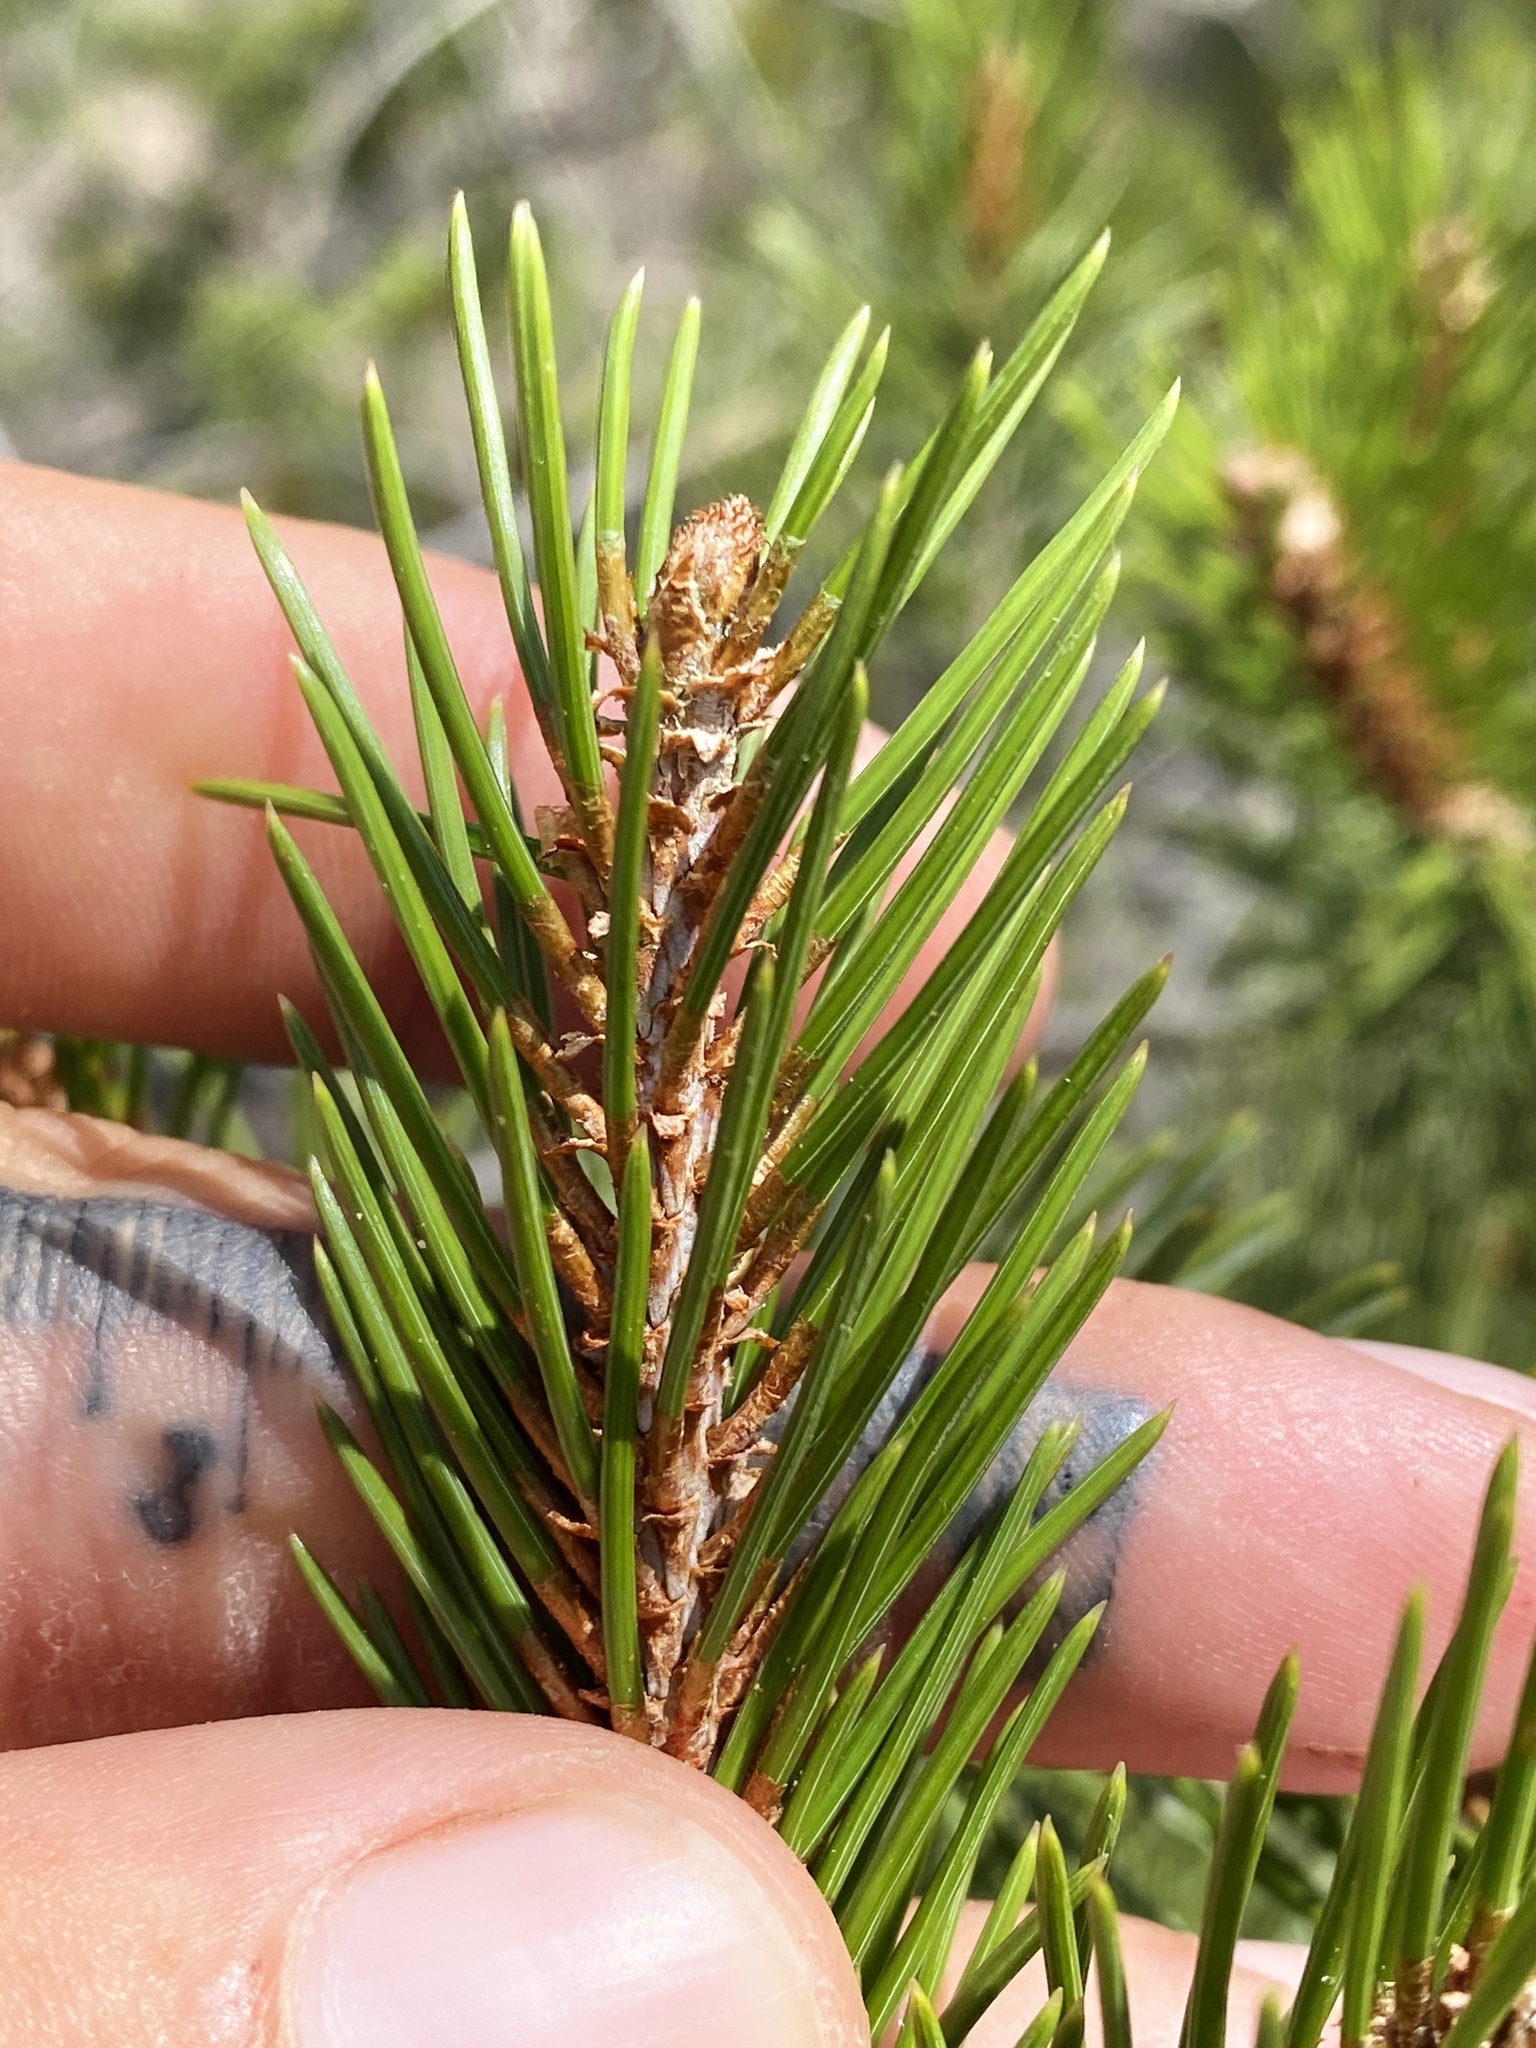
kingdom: Plantae
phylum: Tracheophyta
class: Pinopsida
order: Pinales
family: Pinaceae
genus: Pinus
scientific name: Pinus cembroides
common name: Mexican nut pine
